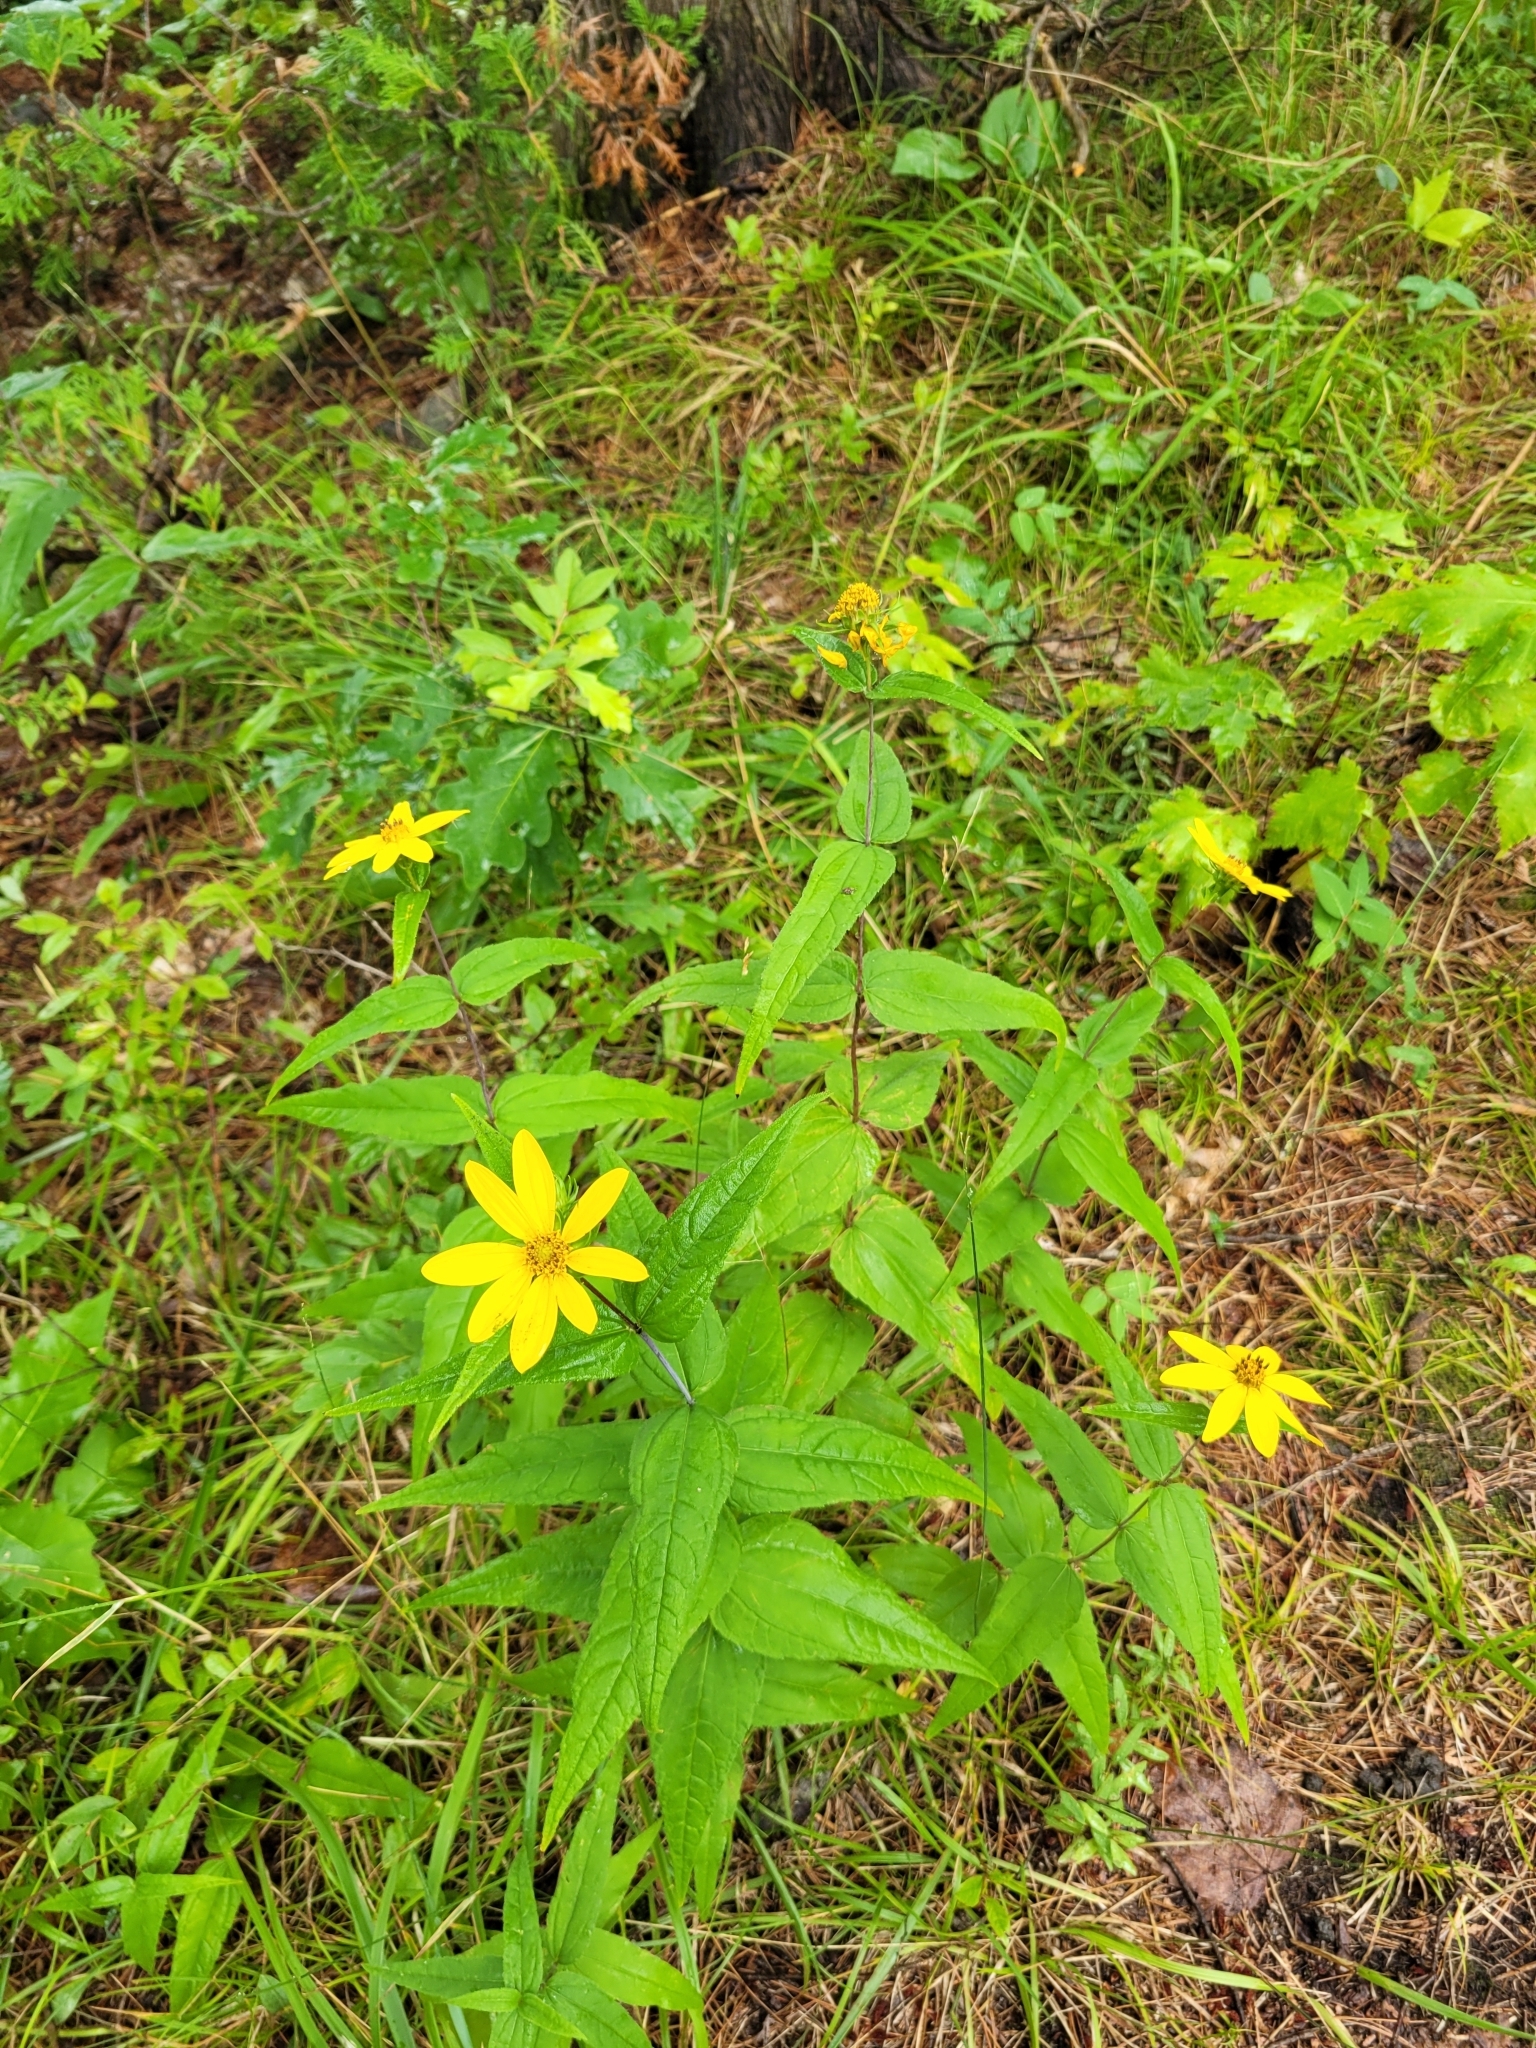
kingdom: Plantae
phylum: Tracheophyta
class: Magnoliopsida
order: Asterales
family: Asteraceae
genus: Helianthus
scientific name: Helianthus divaricatus
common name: Divergent sunflower
